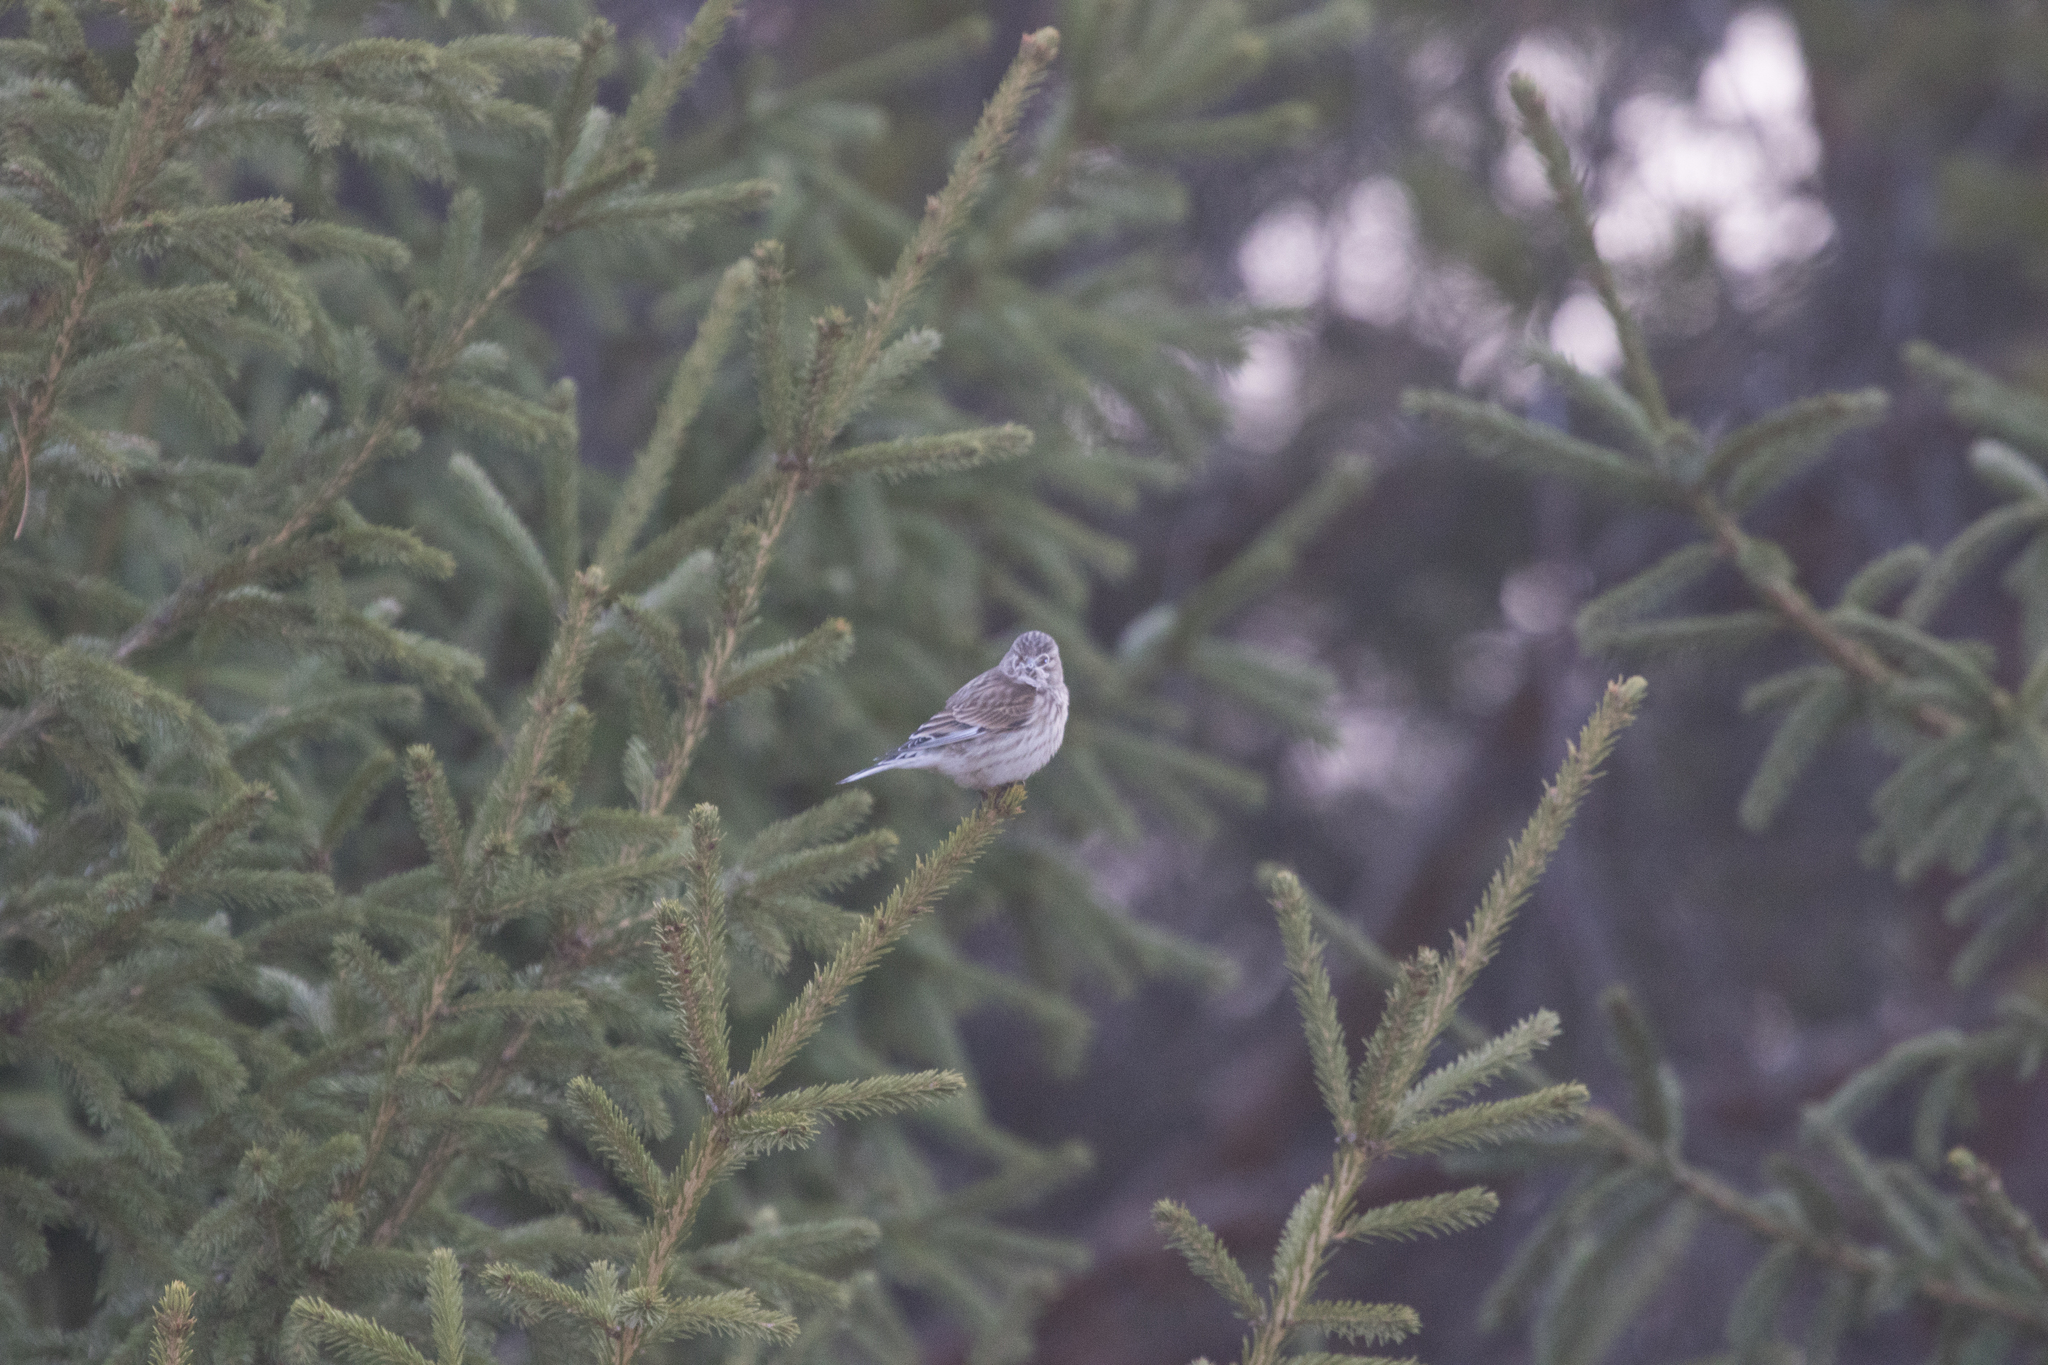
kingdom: Animalia
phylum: Chordata
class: Aves
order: Passeriformes
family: Fringillidae
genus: Linaria
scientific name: Linaria cannabina
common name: Common linnet
